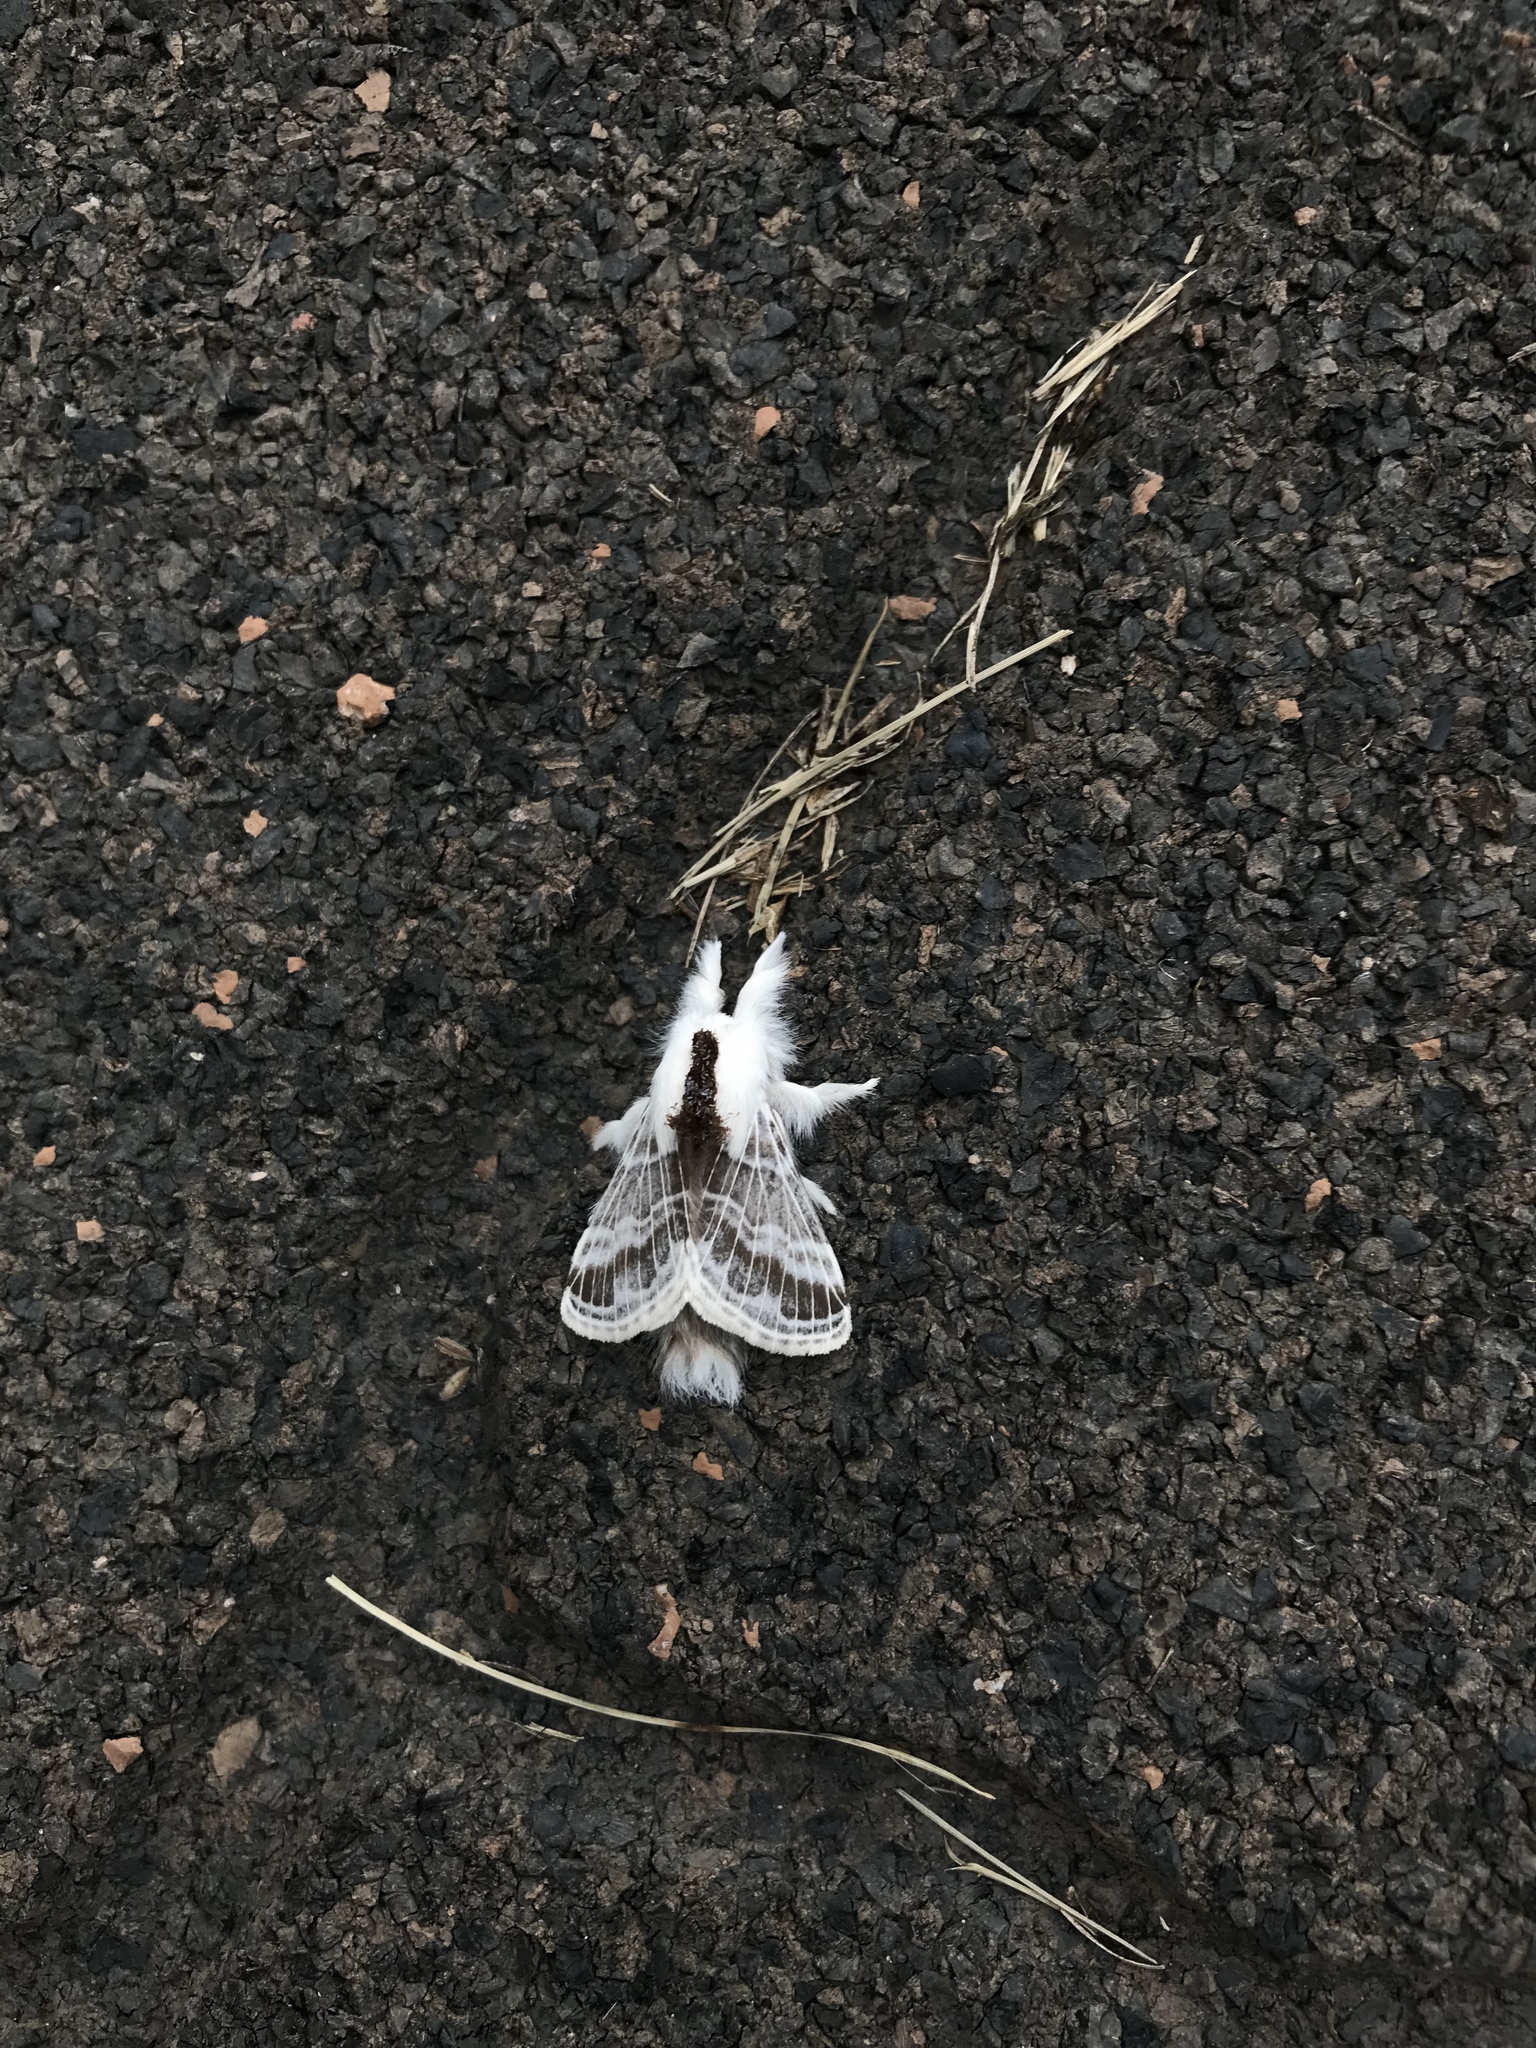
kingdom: Animalia
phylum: Arthropoda
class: Insecta
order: Lepidoptera
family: Lasiocampidae
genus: Tolype
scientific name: Tolype velleda
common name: Large tolype moth
